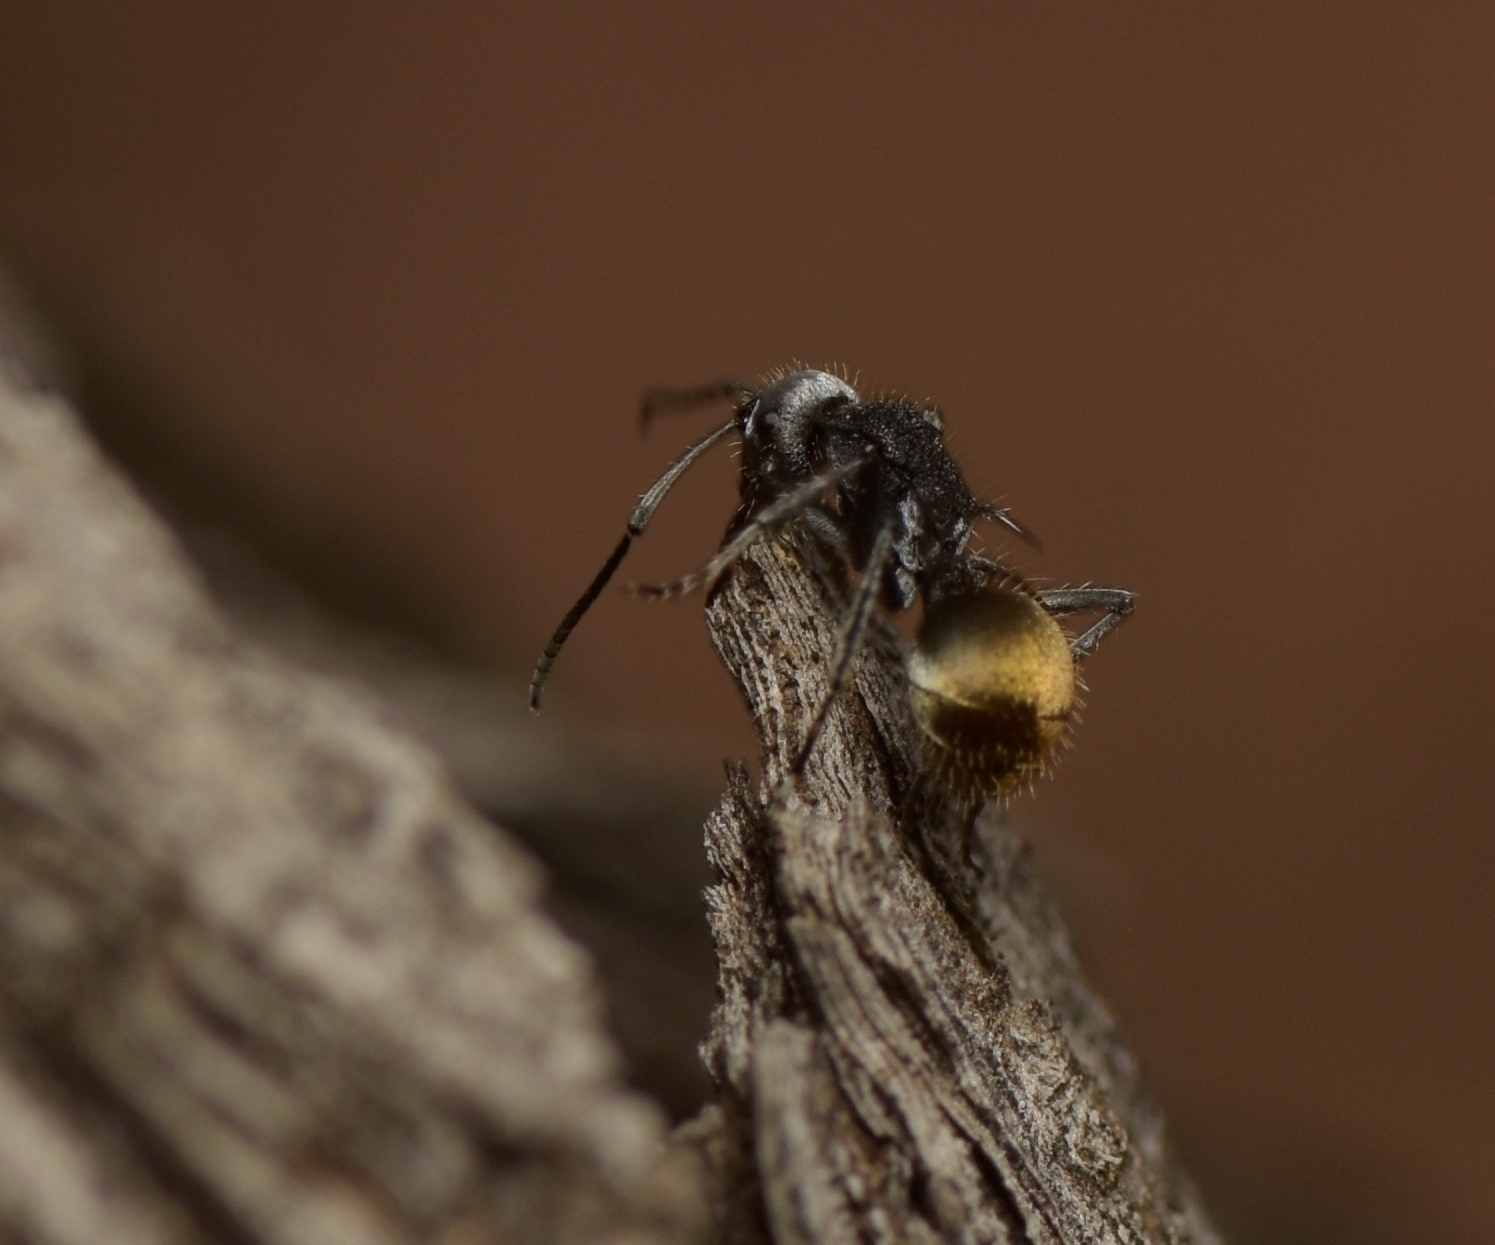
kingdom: Animalia
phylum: Arthropoda
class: Insecta
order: Hymenoptera
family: Formicidae
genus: Polyrhachis
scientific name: Polyrhachis senilis
